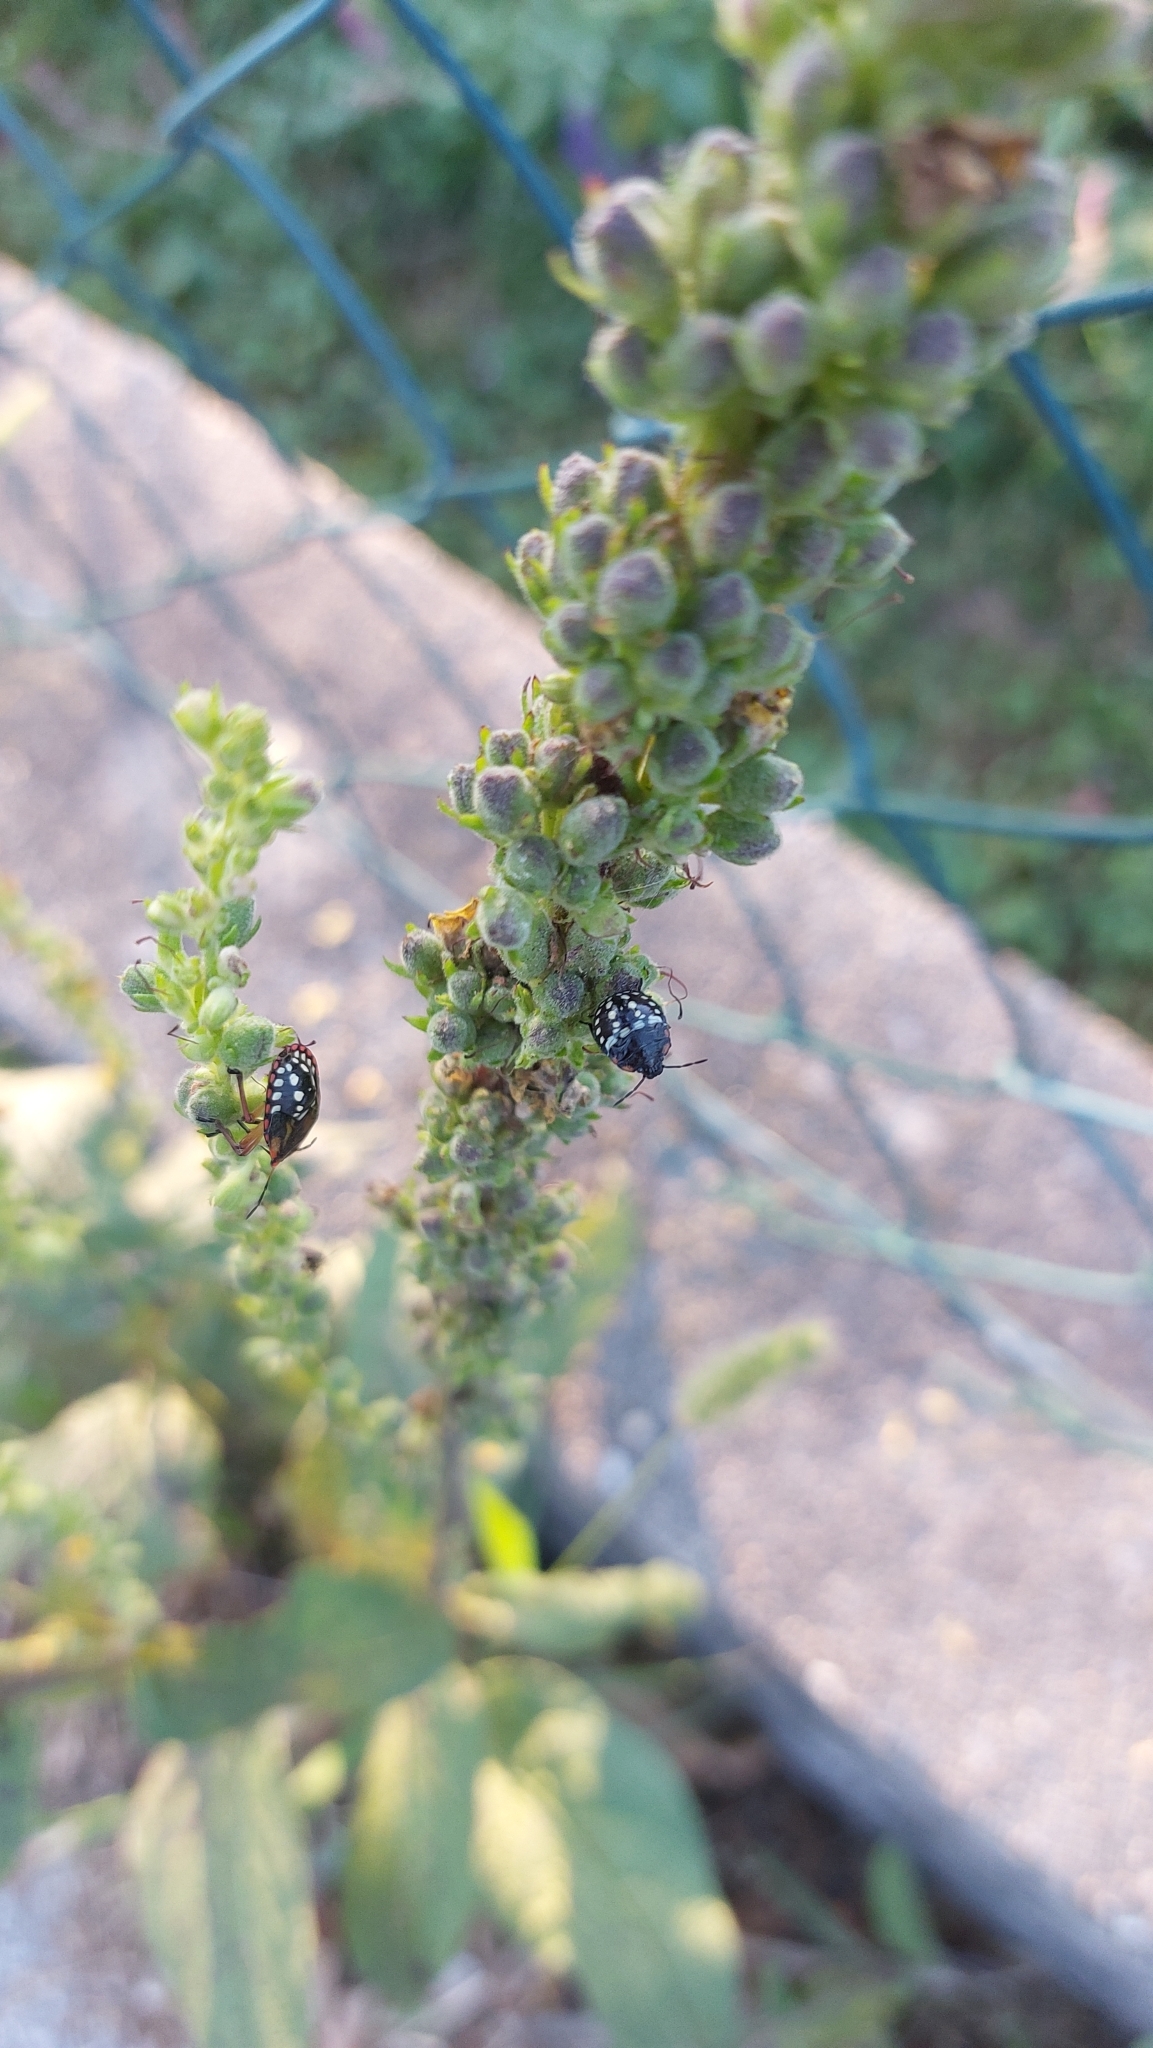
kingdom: Animalia
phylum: Arthropoda
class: Insecta
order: Hemiptera
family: Pentatomidae
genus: Nezara
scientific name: Nezara viridula
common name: Southern green stink bug
